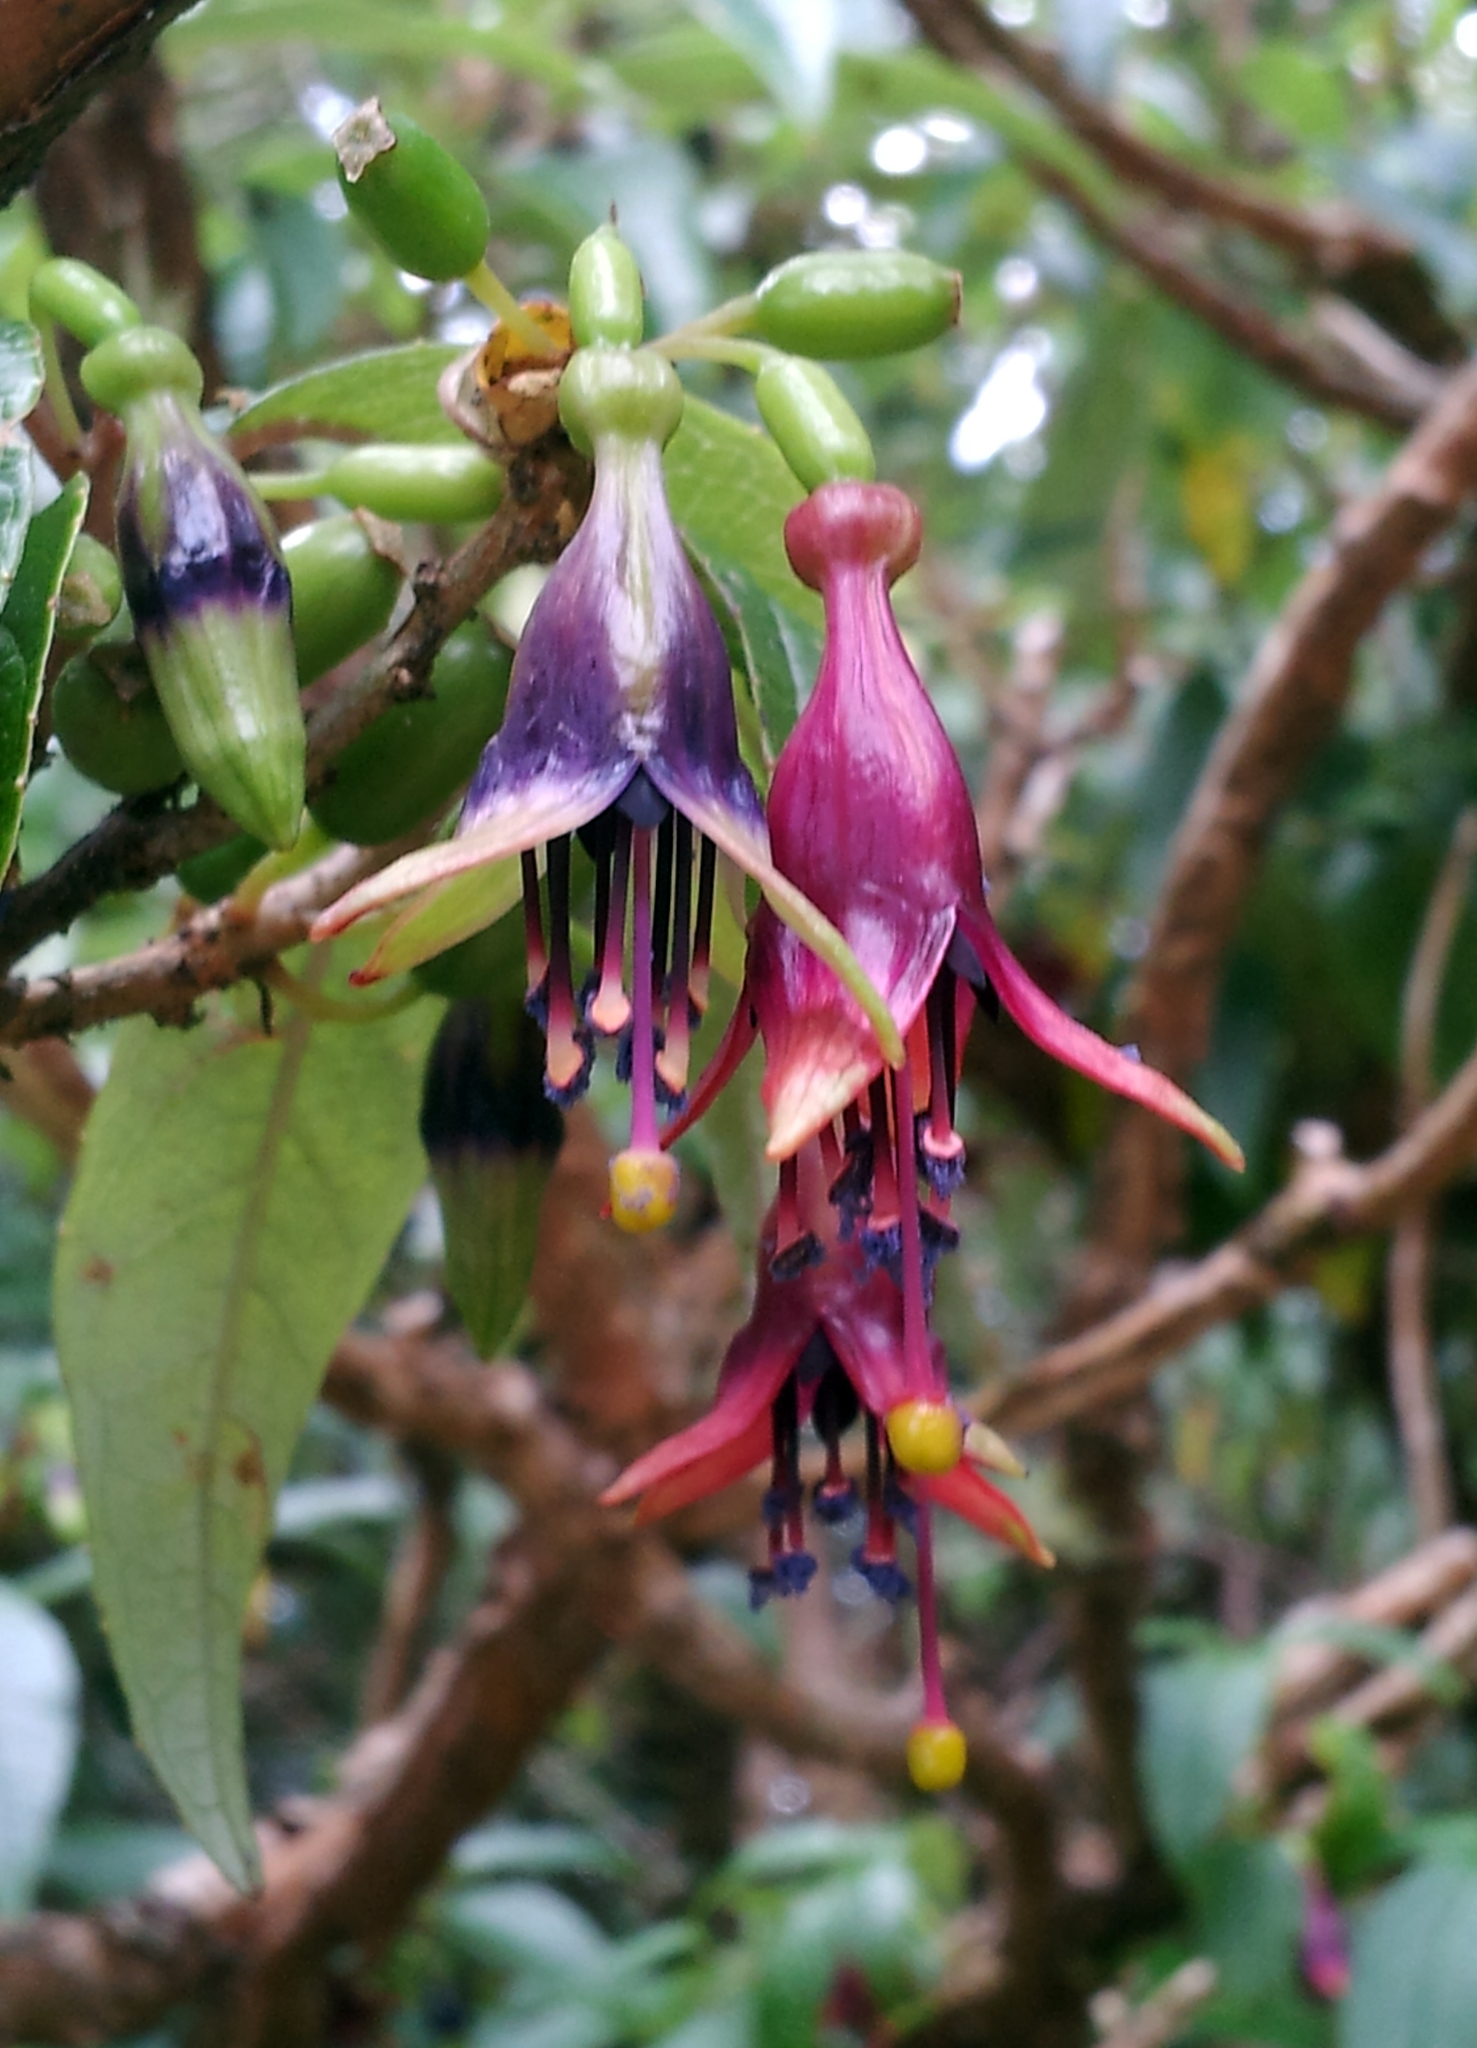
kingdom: Plantae
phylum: Tracheophyta
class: Magnoliopsida
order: Myrtales
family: Onagraceae
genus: Fuchsia
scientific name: Fuchsia excorticata
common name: Tree fuchsia
